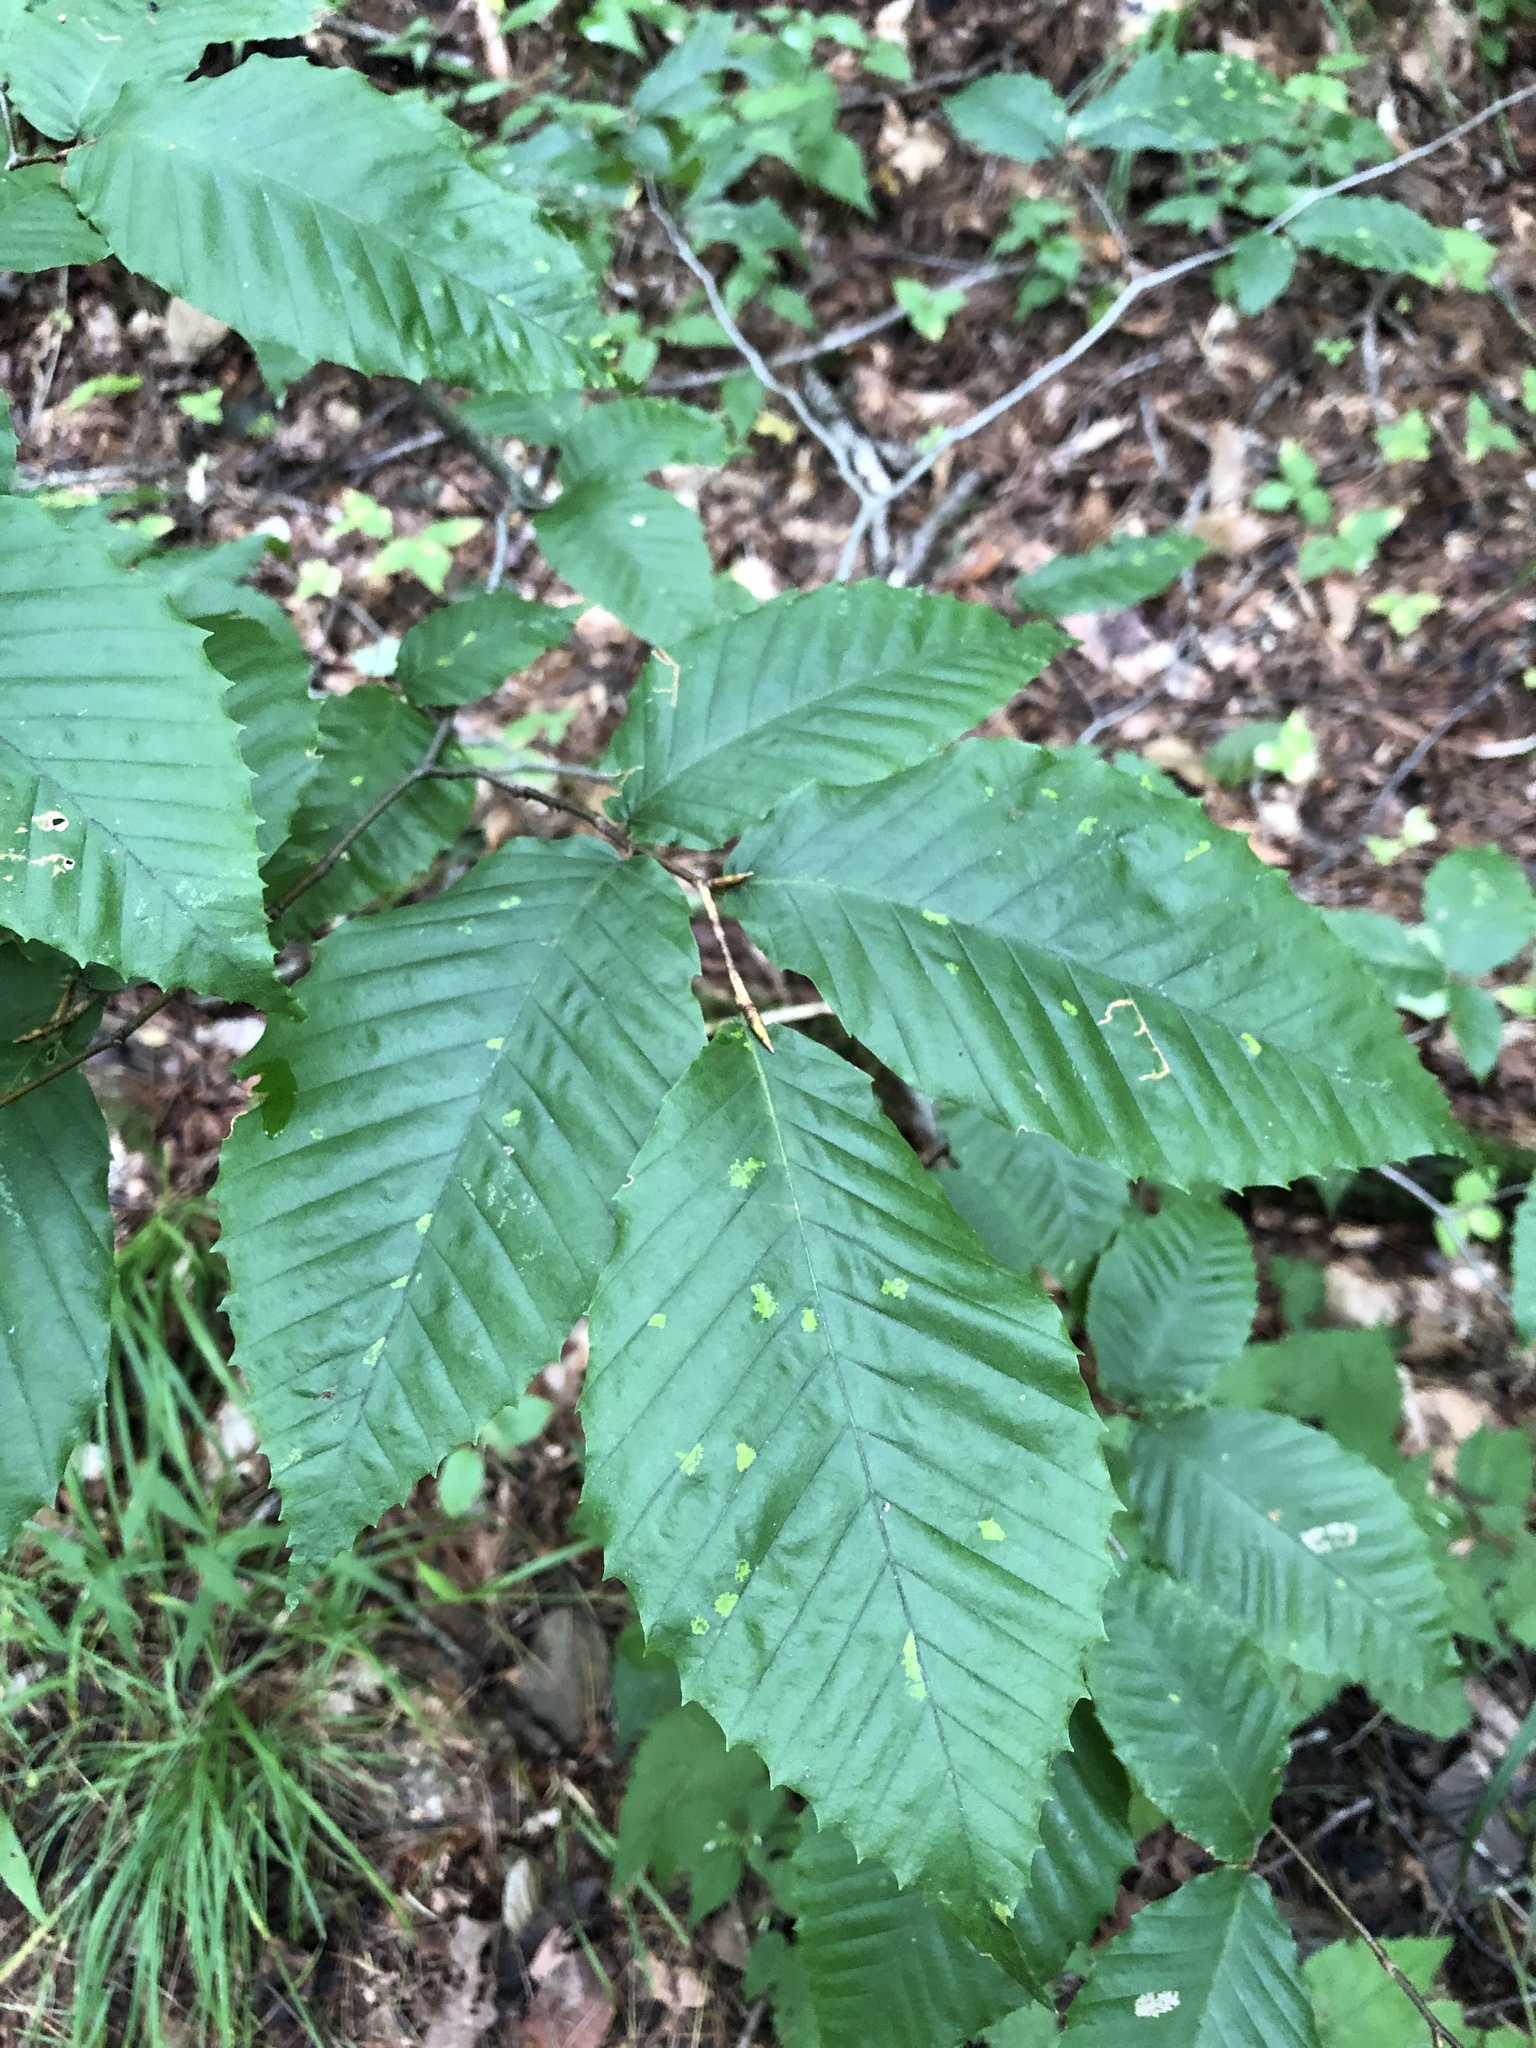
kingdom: Plantae
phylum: Tracheophyta
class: Magnoliopsida
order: Fagales
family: Fagaceae
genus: Fagus
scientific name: Fagus grandifolia
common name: American beech
